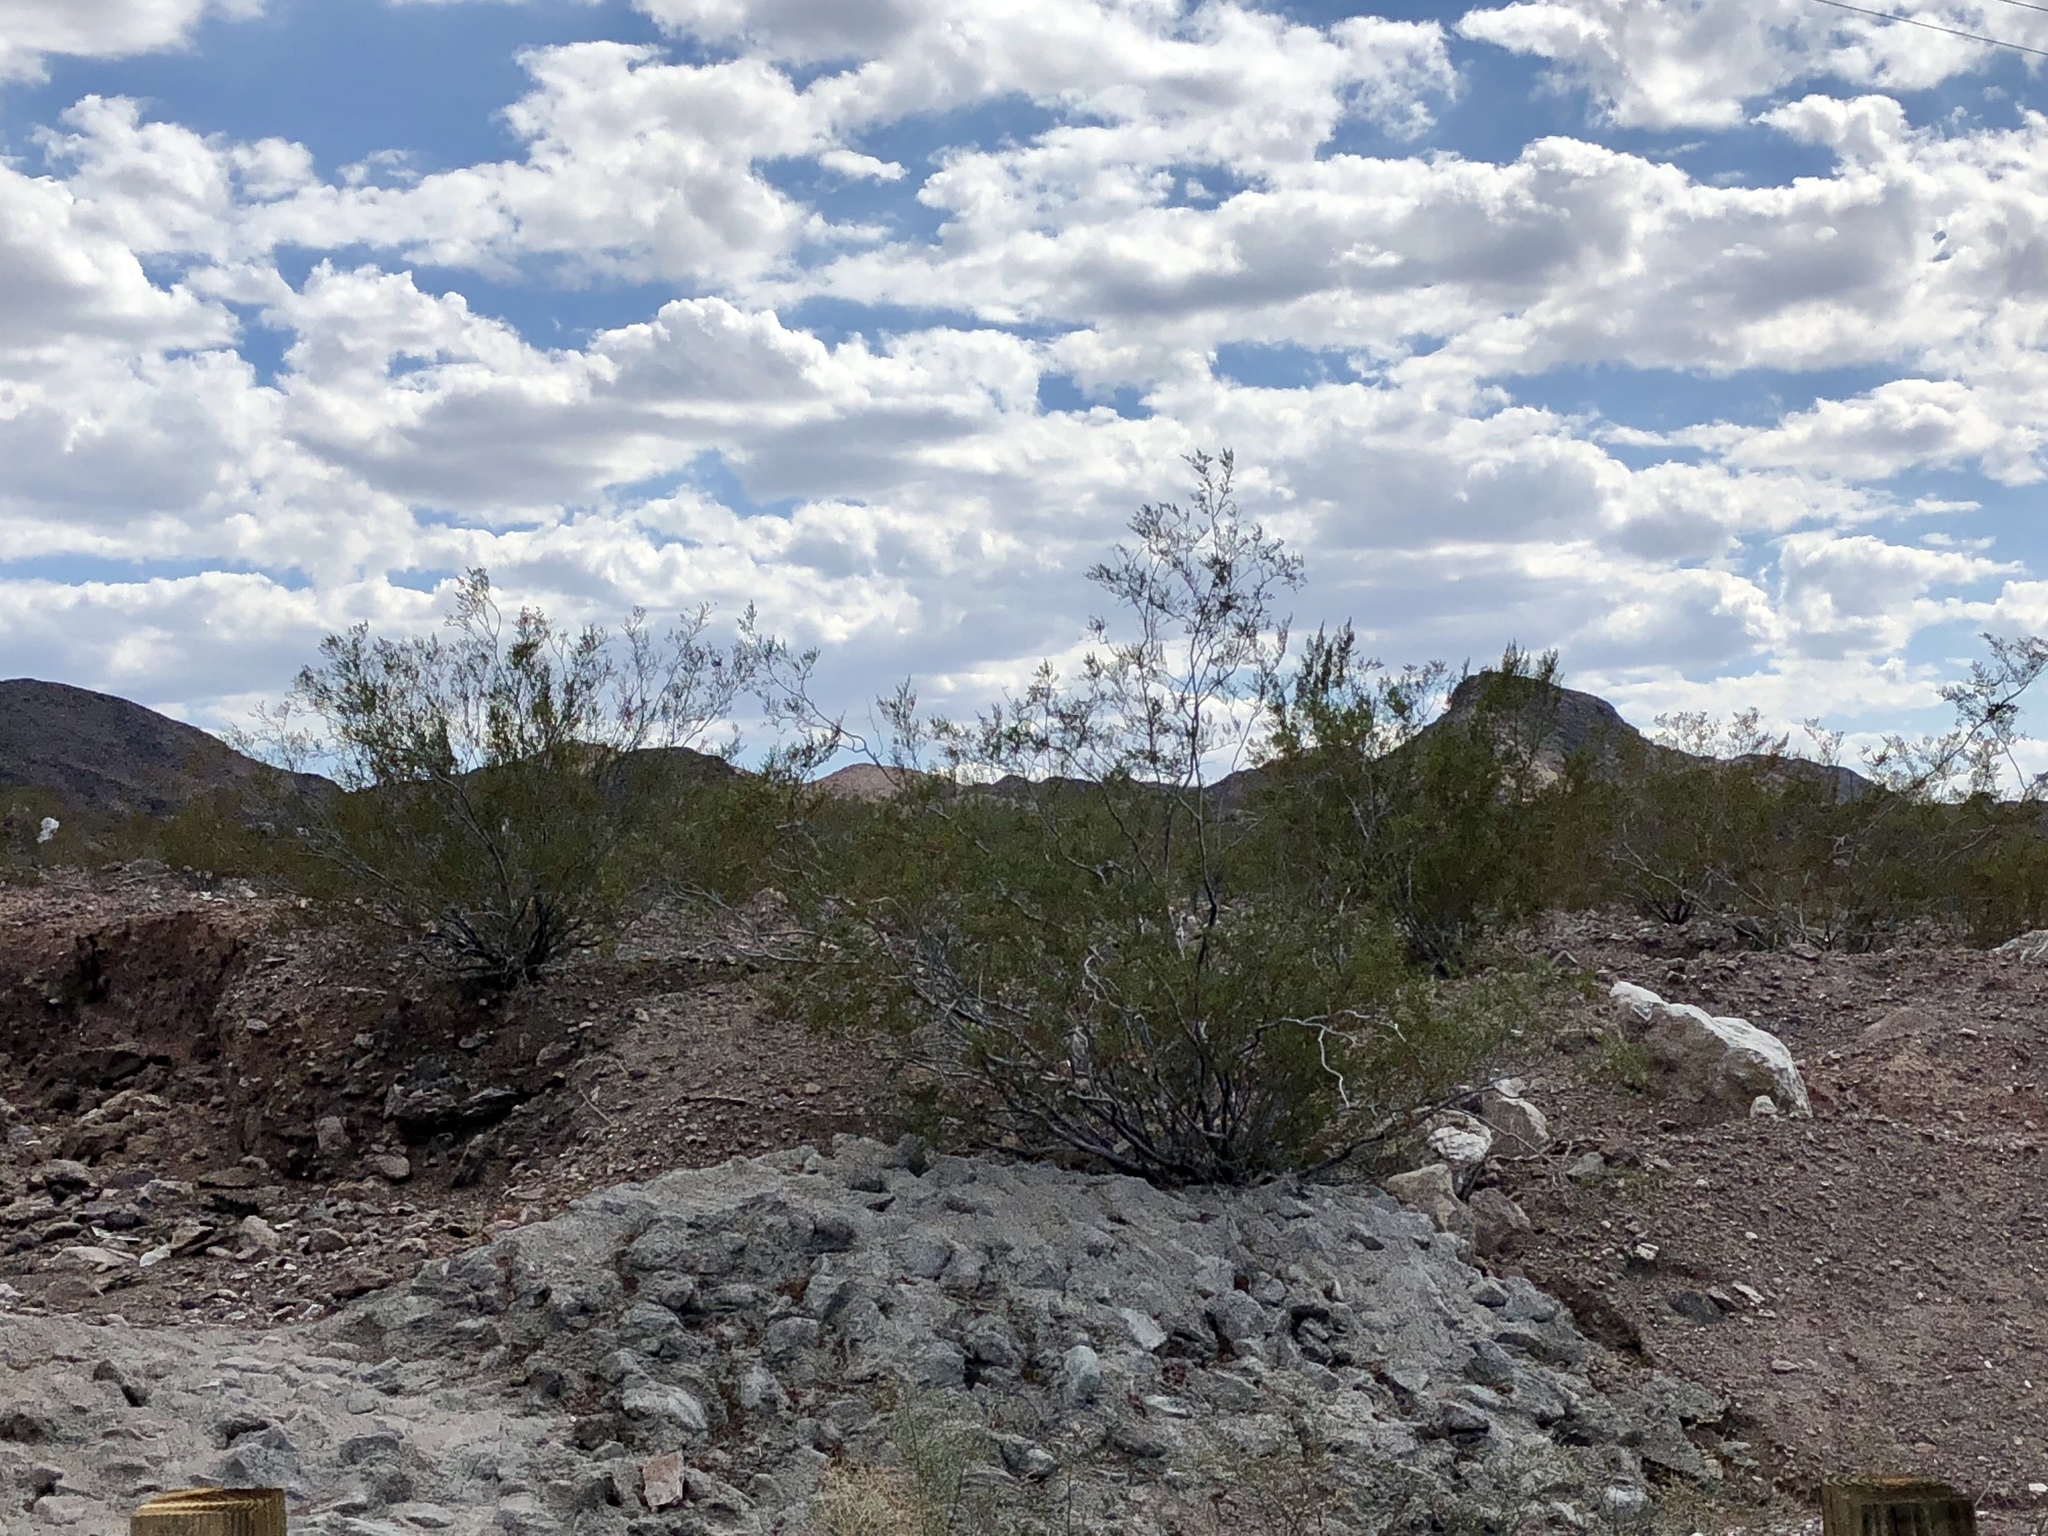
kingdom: Plantae
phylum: Tracheophyta
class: Magnoliopsida
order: Zygophyllales
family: Zygophyllaceae
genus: Larrea
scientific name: Larrea tridentata
